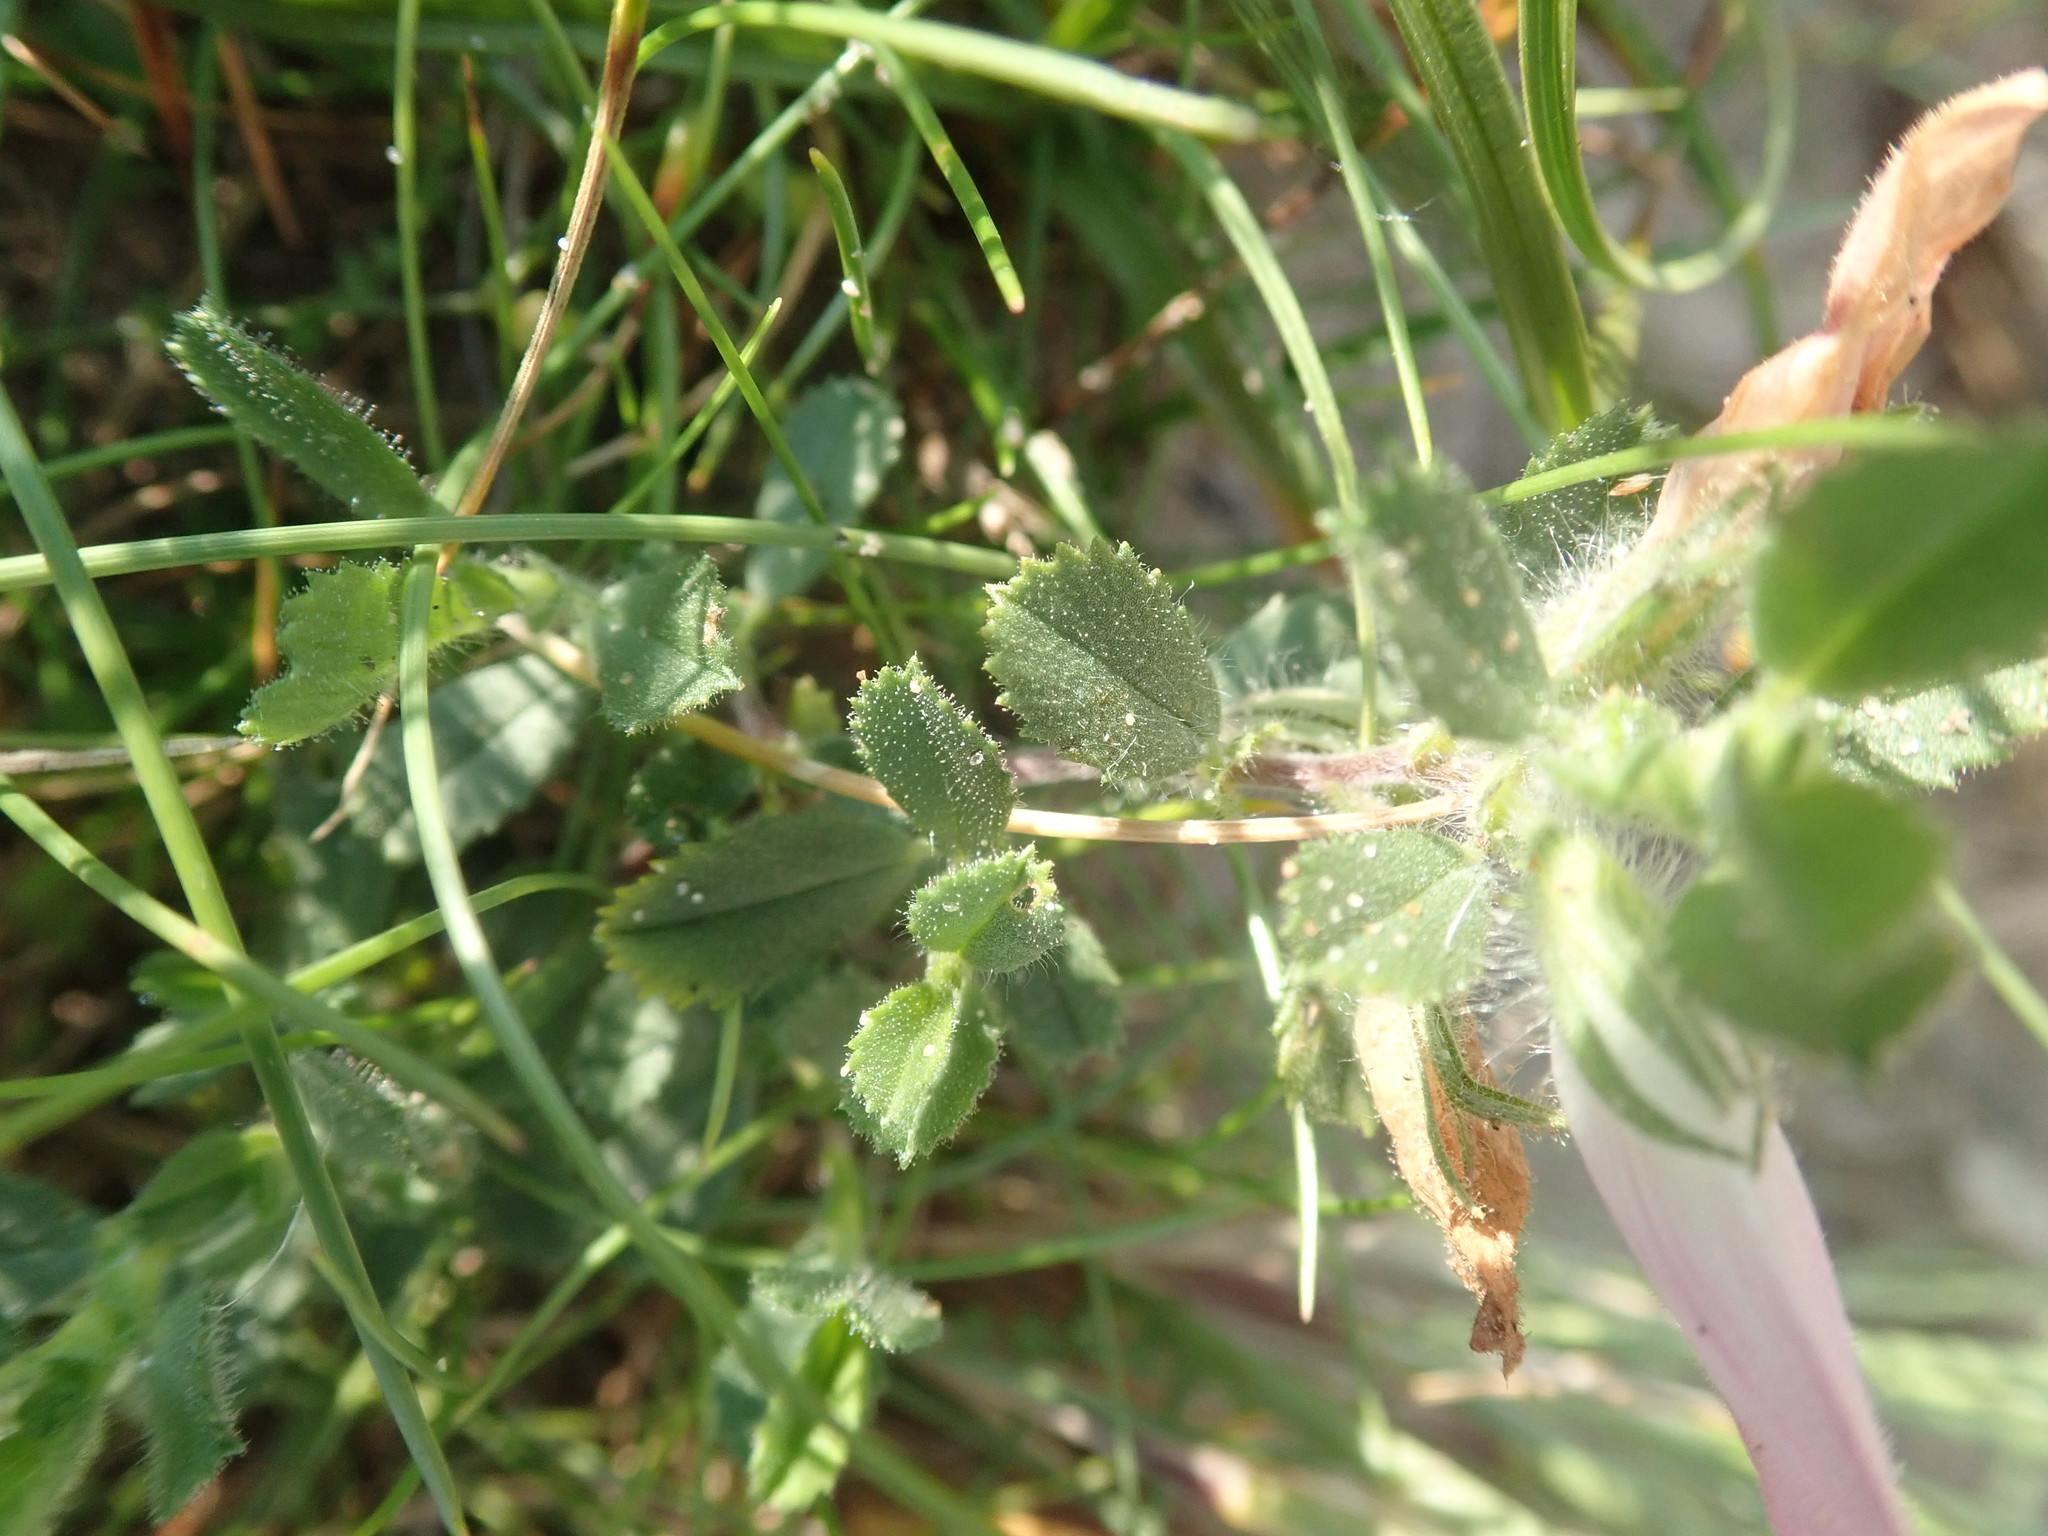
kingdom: Plantae
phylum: Tracheophyta
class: Magnoliopsida
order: Fabales
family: Fabaceae
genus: Ononis
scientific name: Ononis spinosa
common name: Spiny restharrow
